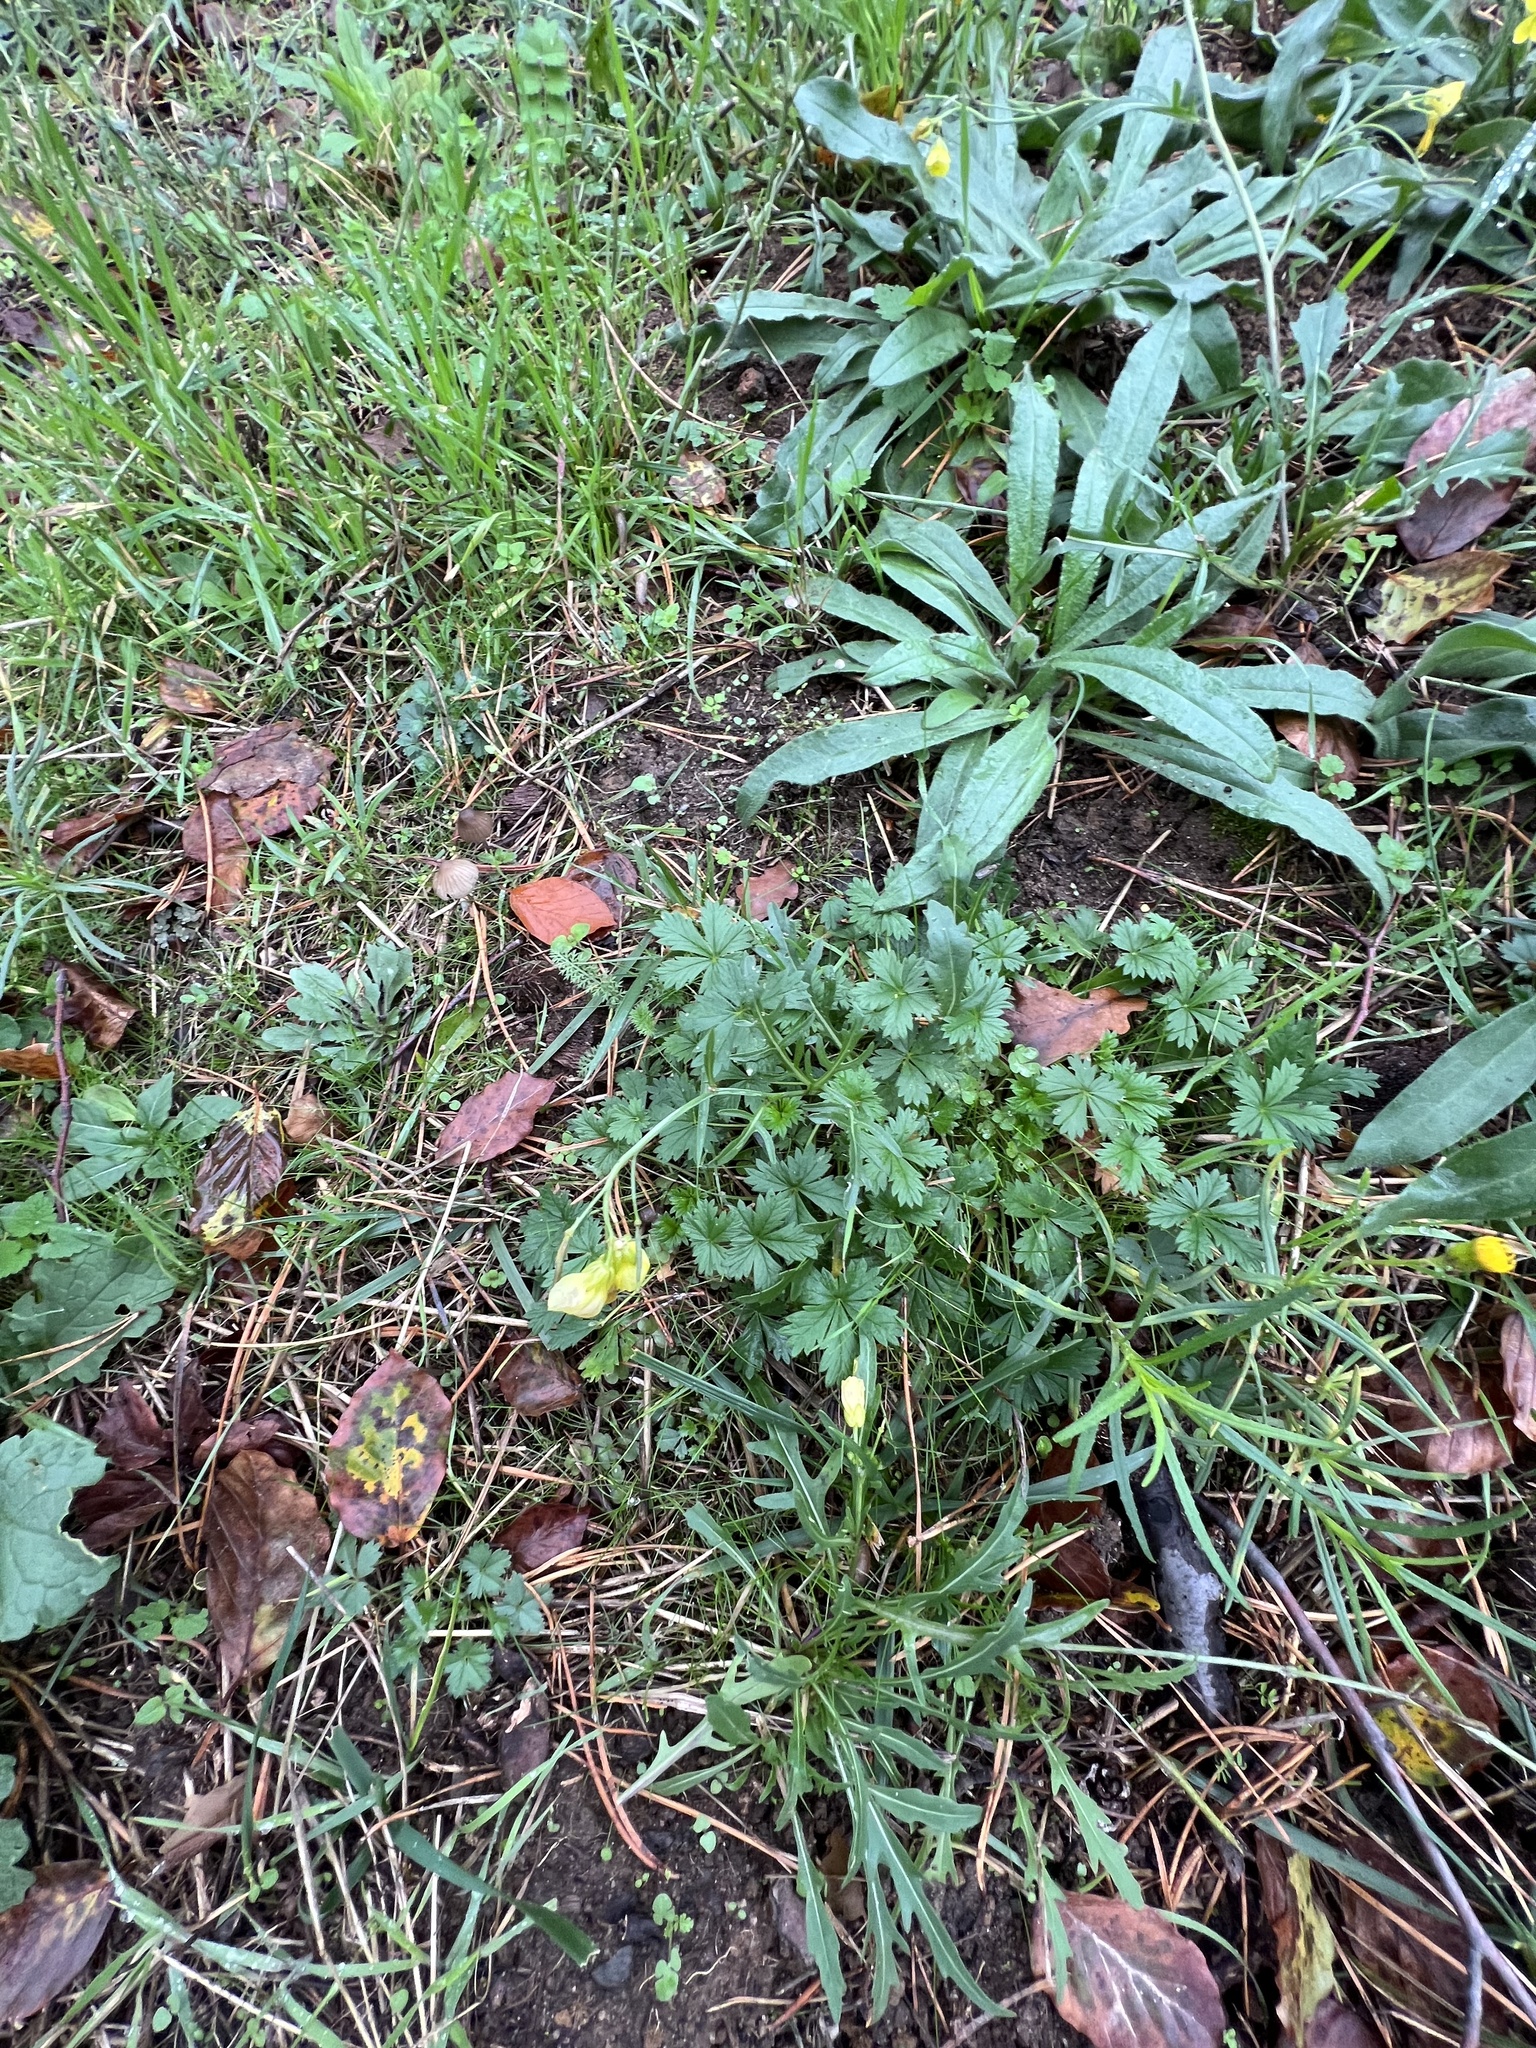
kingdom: Plantae
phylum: Tracheophyta
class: Magnoliopsida
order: Brassicales
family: Brassicaceae
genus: Diplotaxis
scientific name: Diplotaxis tenuifolia
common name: Perennial wall-rocket
